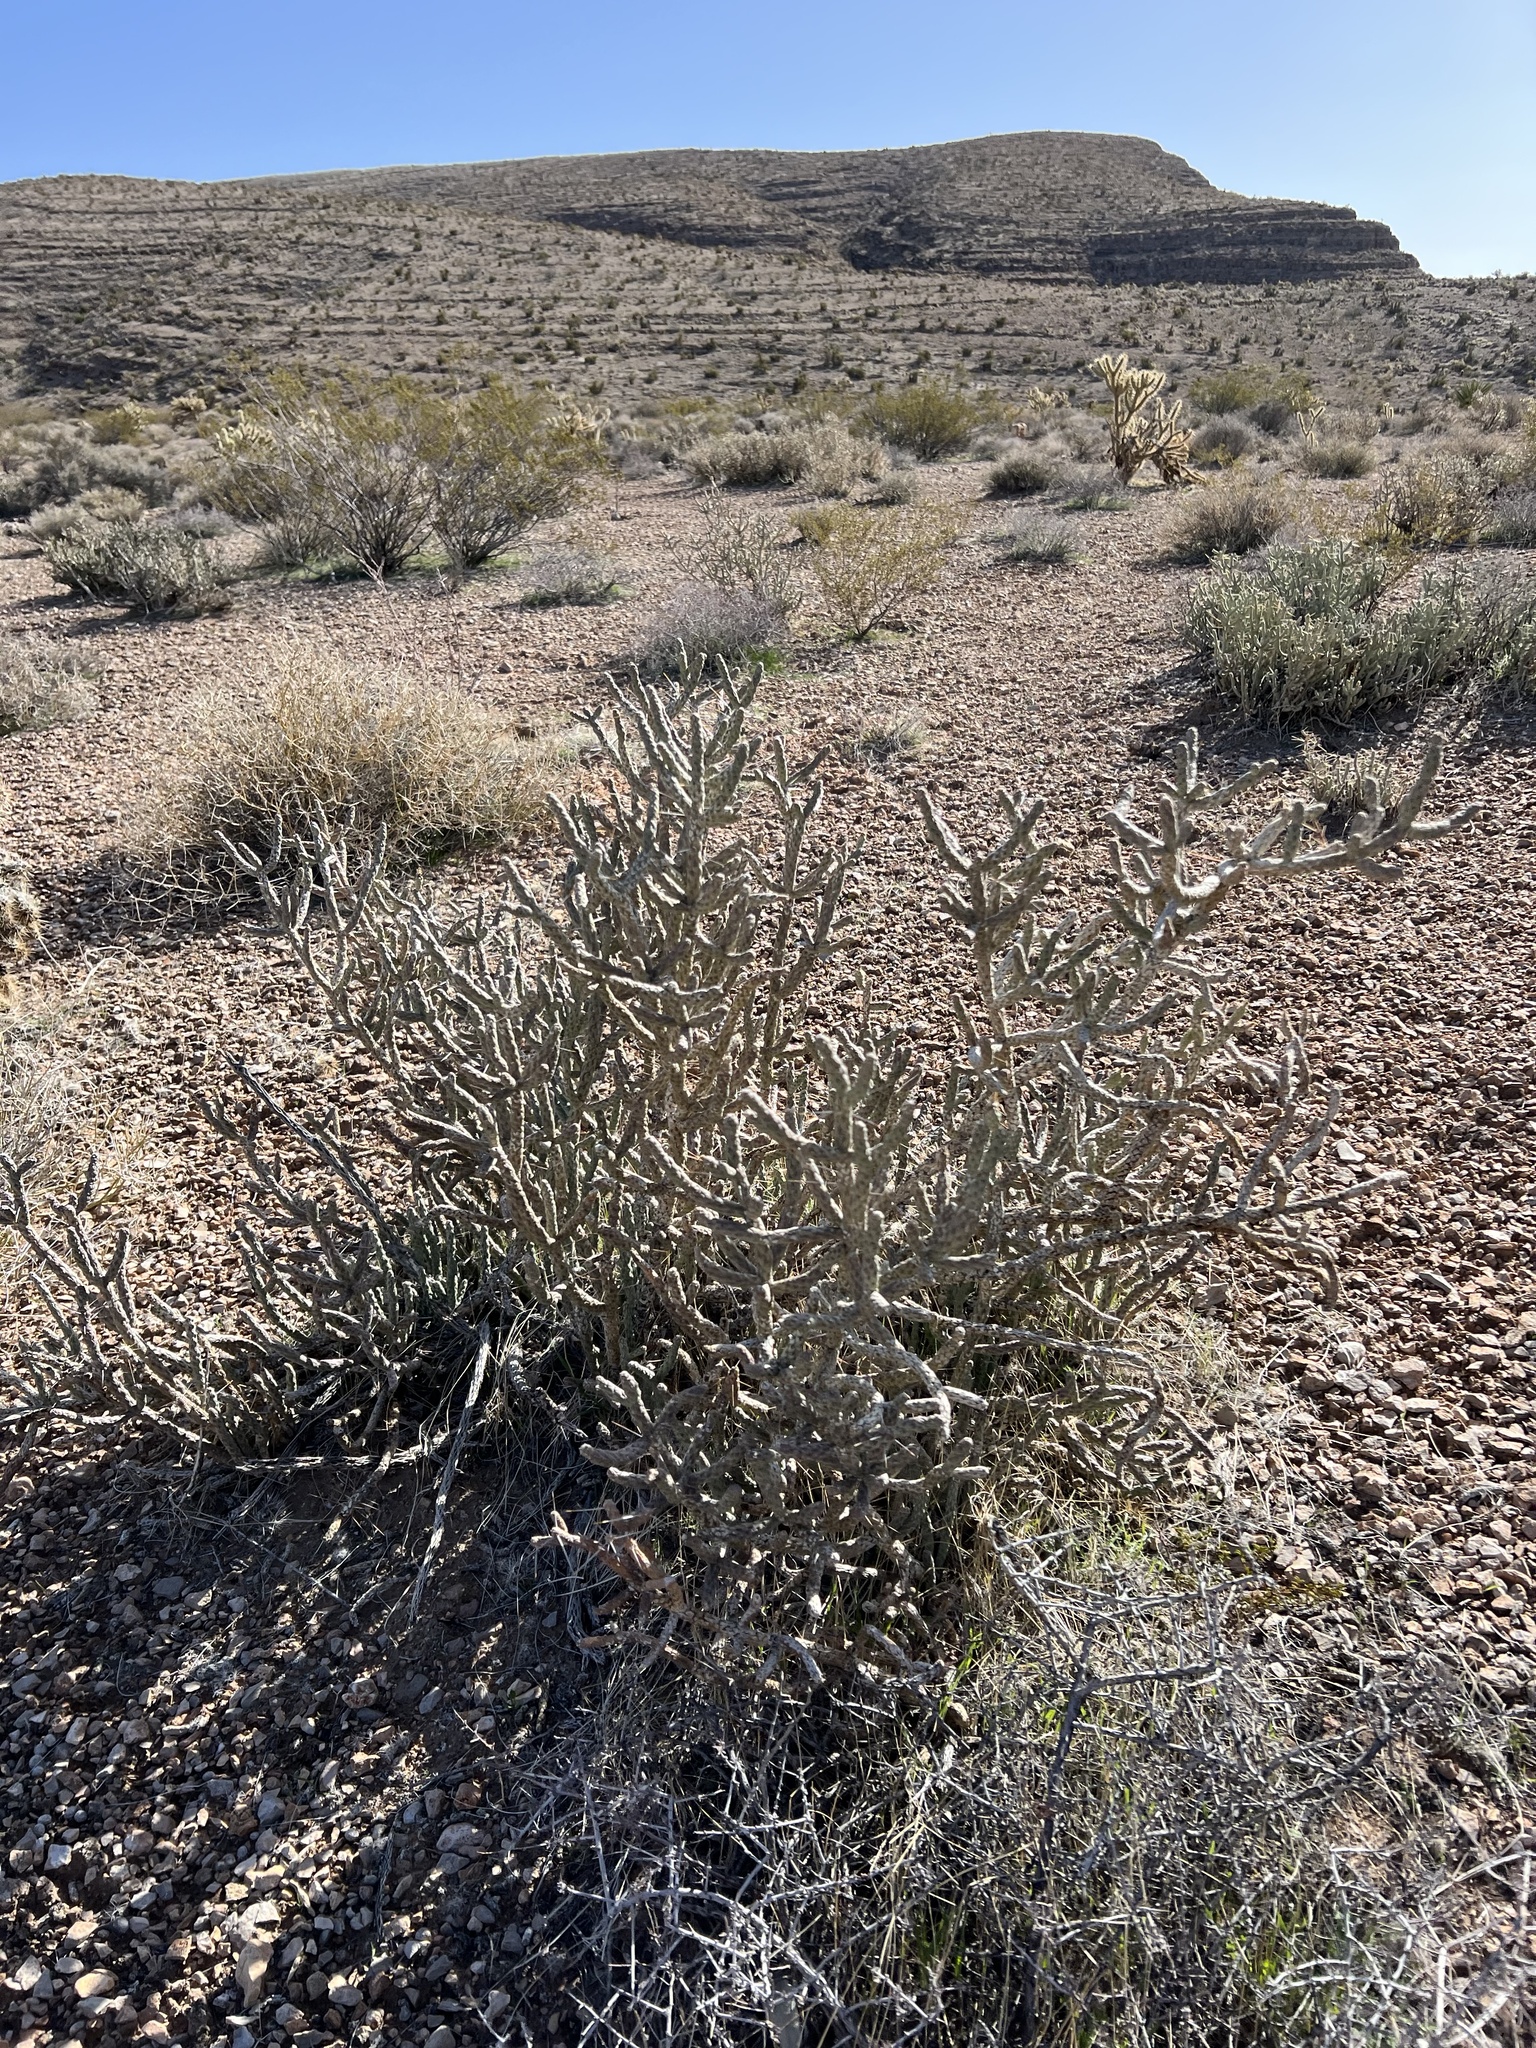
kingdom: Plantae
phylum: Tracheophyta
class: Magnoliopsida
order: Caryophyllales
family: Cactaceae
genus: Cylindropuntia
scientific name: Cylindropuntia ramosissima
